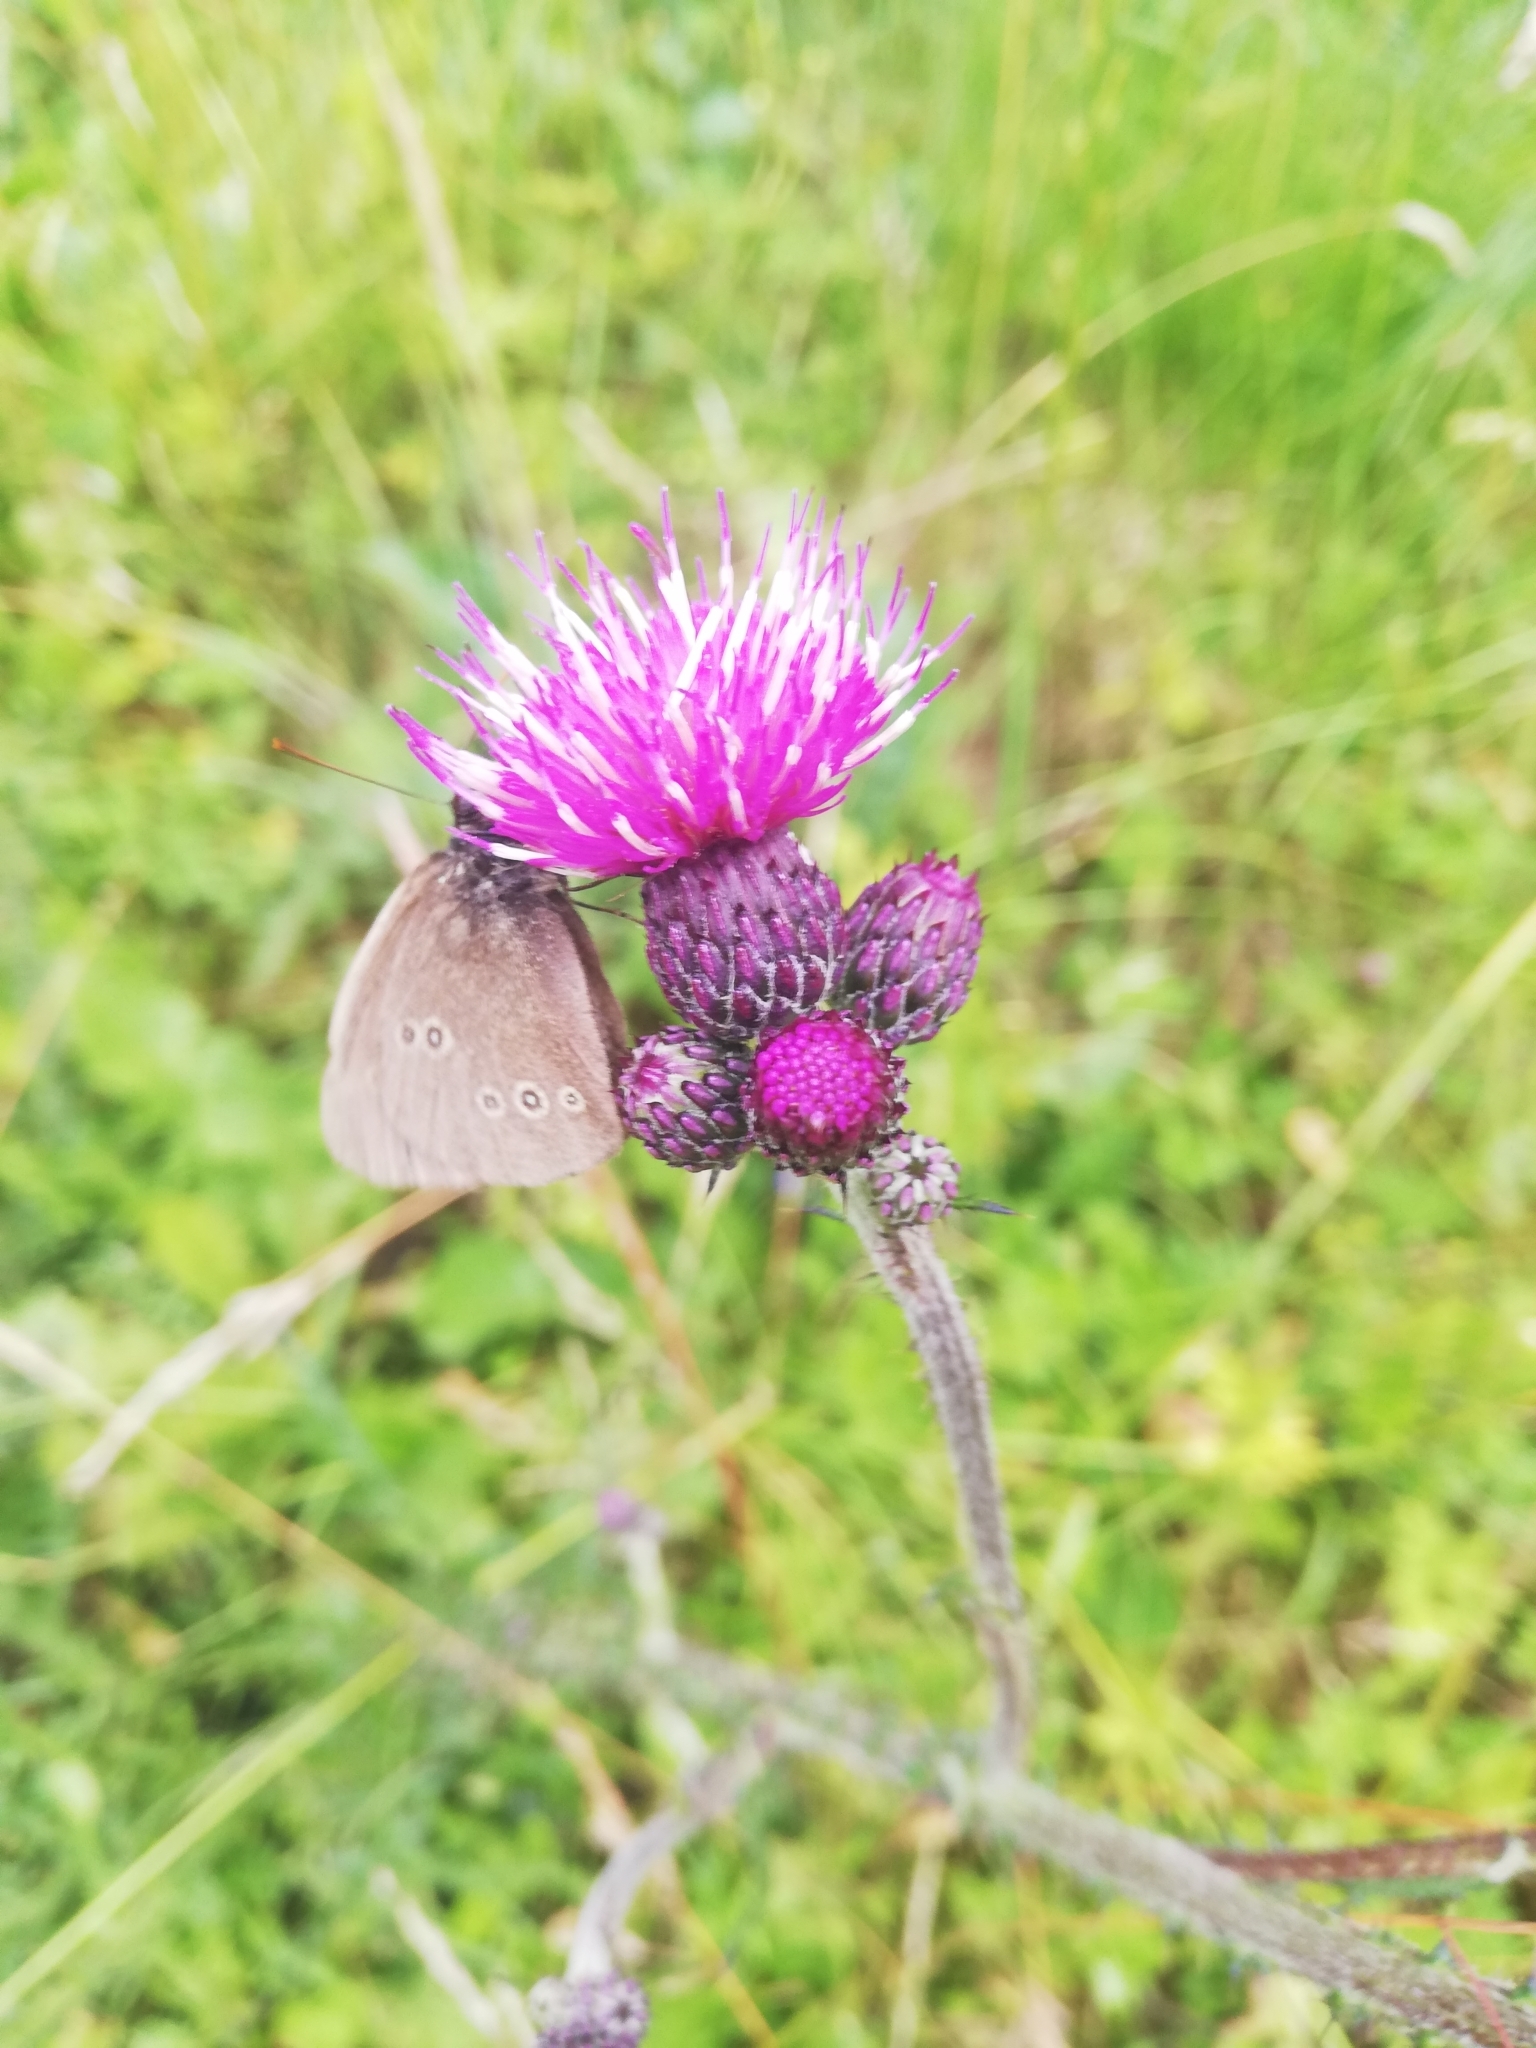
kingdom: Animalia
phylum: Arthropoda
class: Insecta
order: Lepidoptera
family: Nymphalidae
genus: Aphantopus
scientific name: Aphantopus hyperantus
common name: Ringlet
